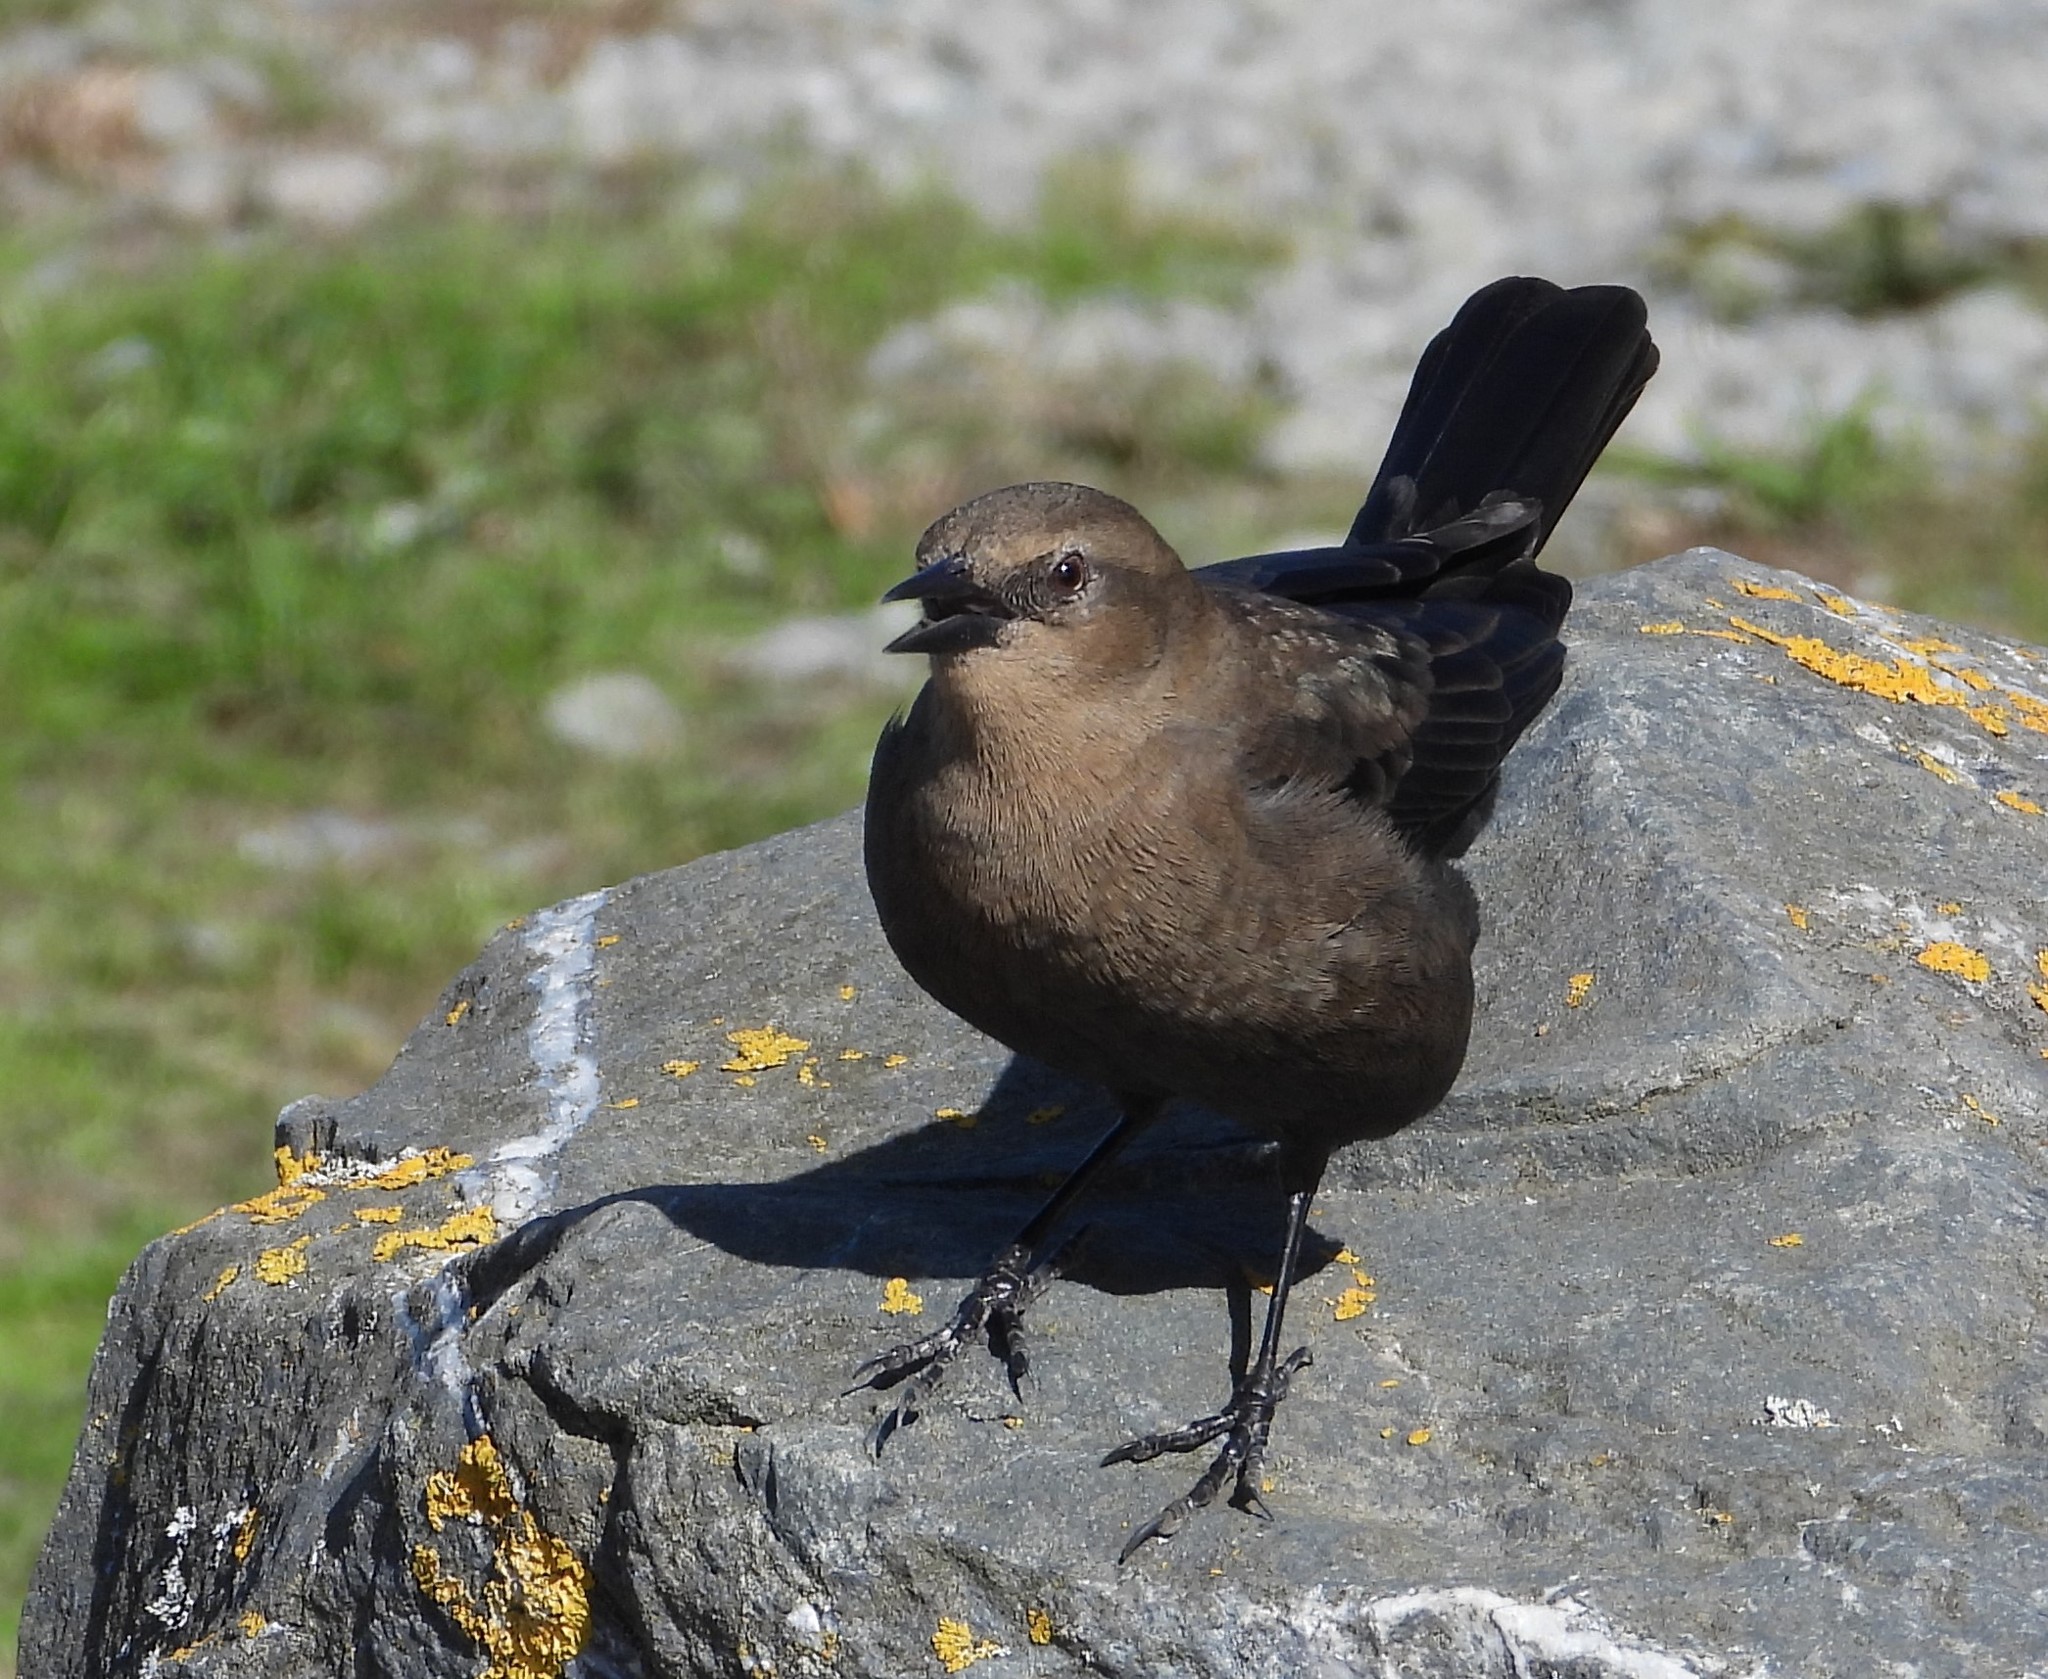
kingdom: Animalia
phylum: Chordata
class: Aves
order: Passeriformes
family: Icteridae
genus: Euphagus
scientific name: Euphagus cyanocephalus
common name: Brewer's blackbird
